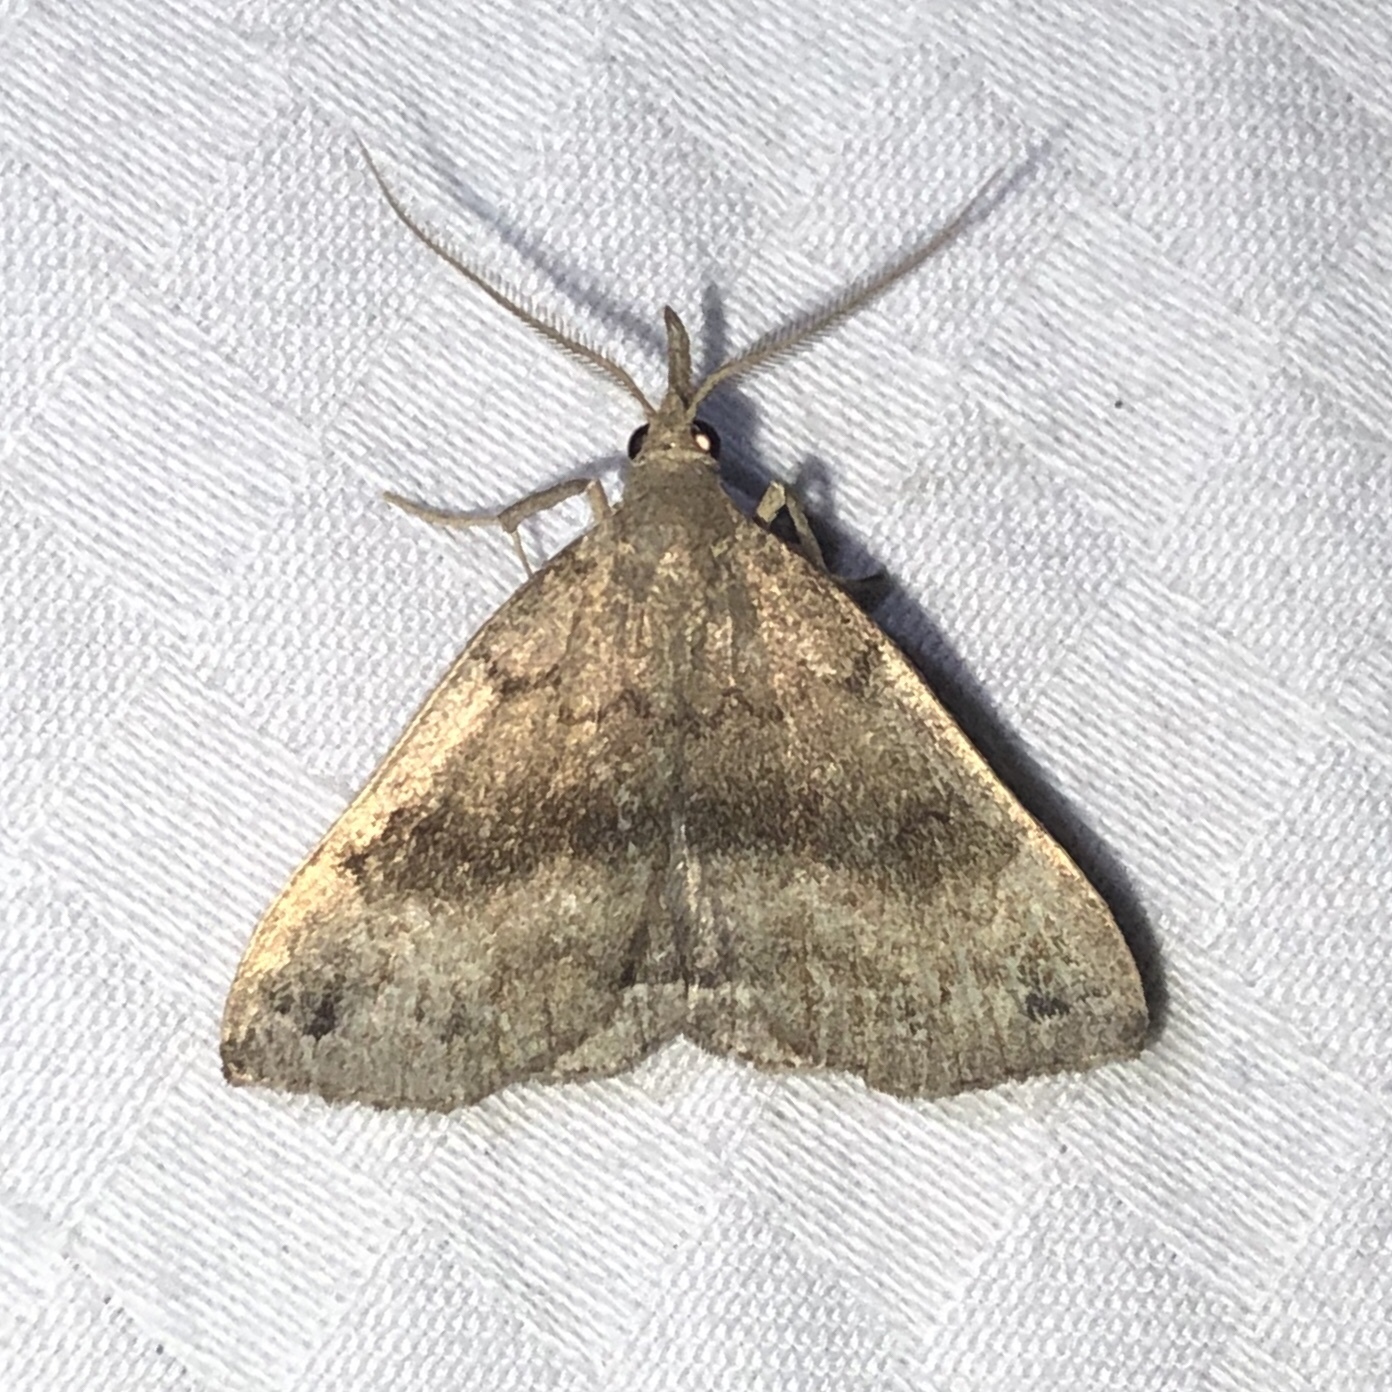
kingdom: Animalia
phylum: Arthropoda
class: Insecta
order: Lepidoptera
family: Erebidae
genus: Phalaenostola
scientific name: Phalaenostola eumelusalis
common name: Dark phalaenostola moth
